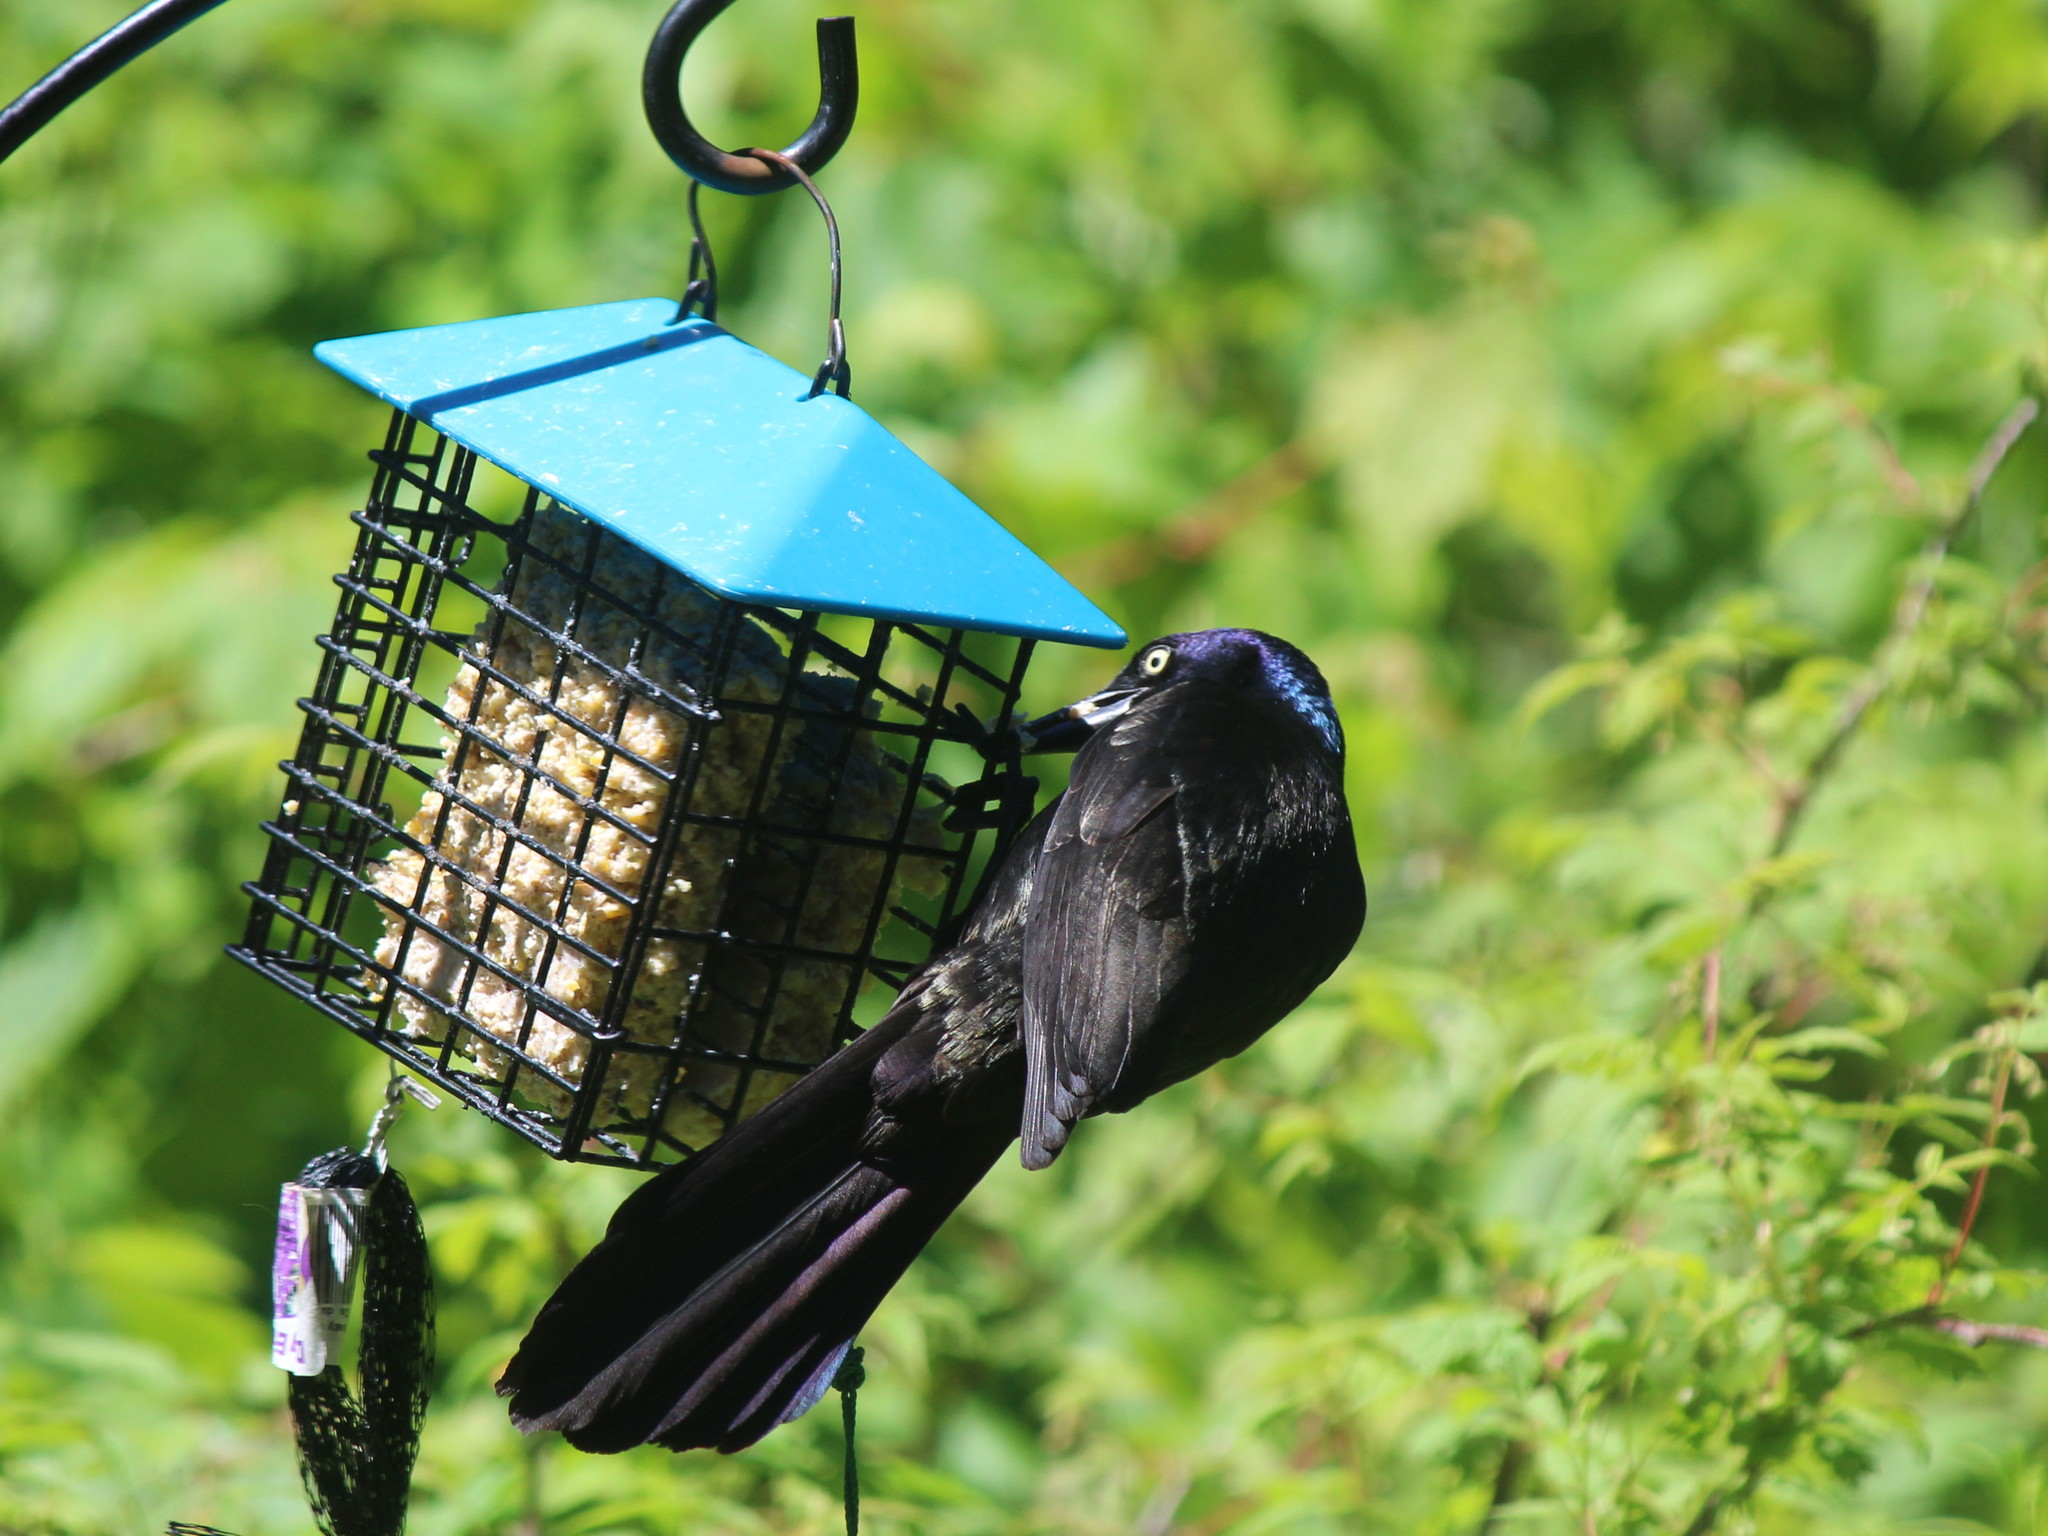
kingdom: Animalia
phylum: Chordata
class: Aves
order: Passeriformes
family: Icteridae
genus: Quiscalus
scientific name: Quiscalus quiscula
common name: Common grackle
